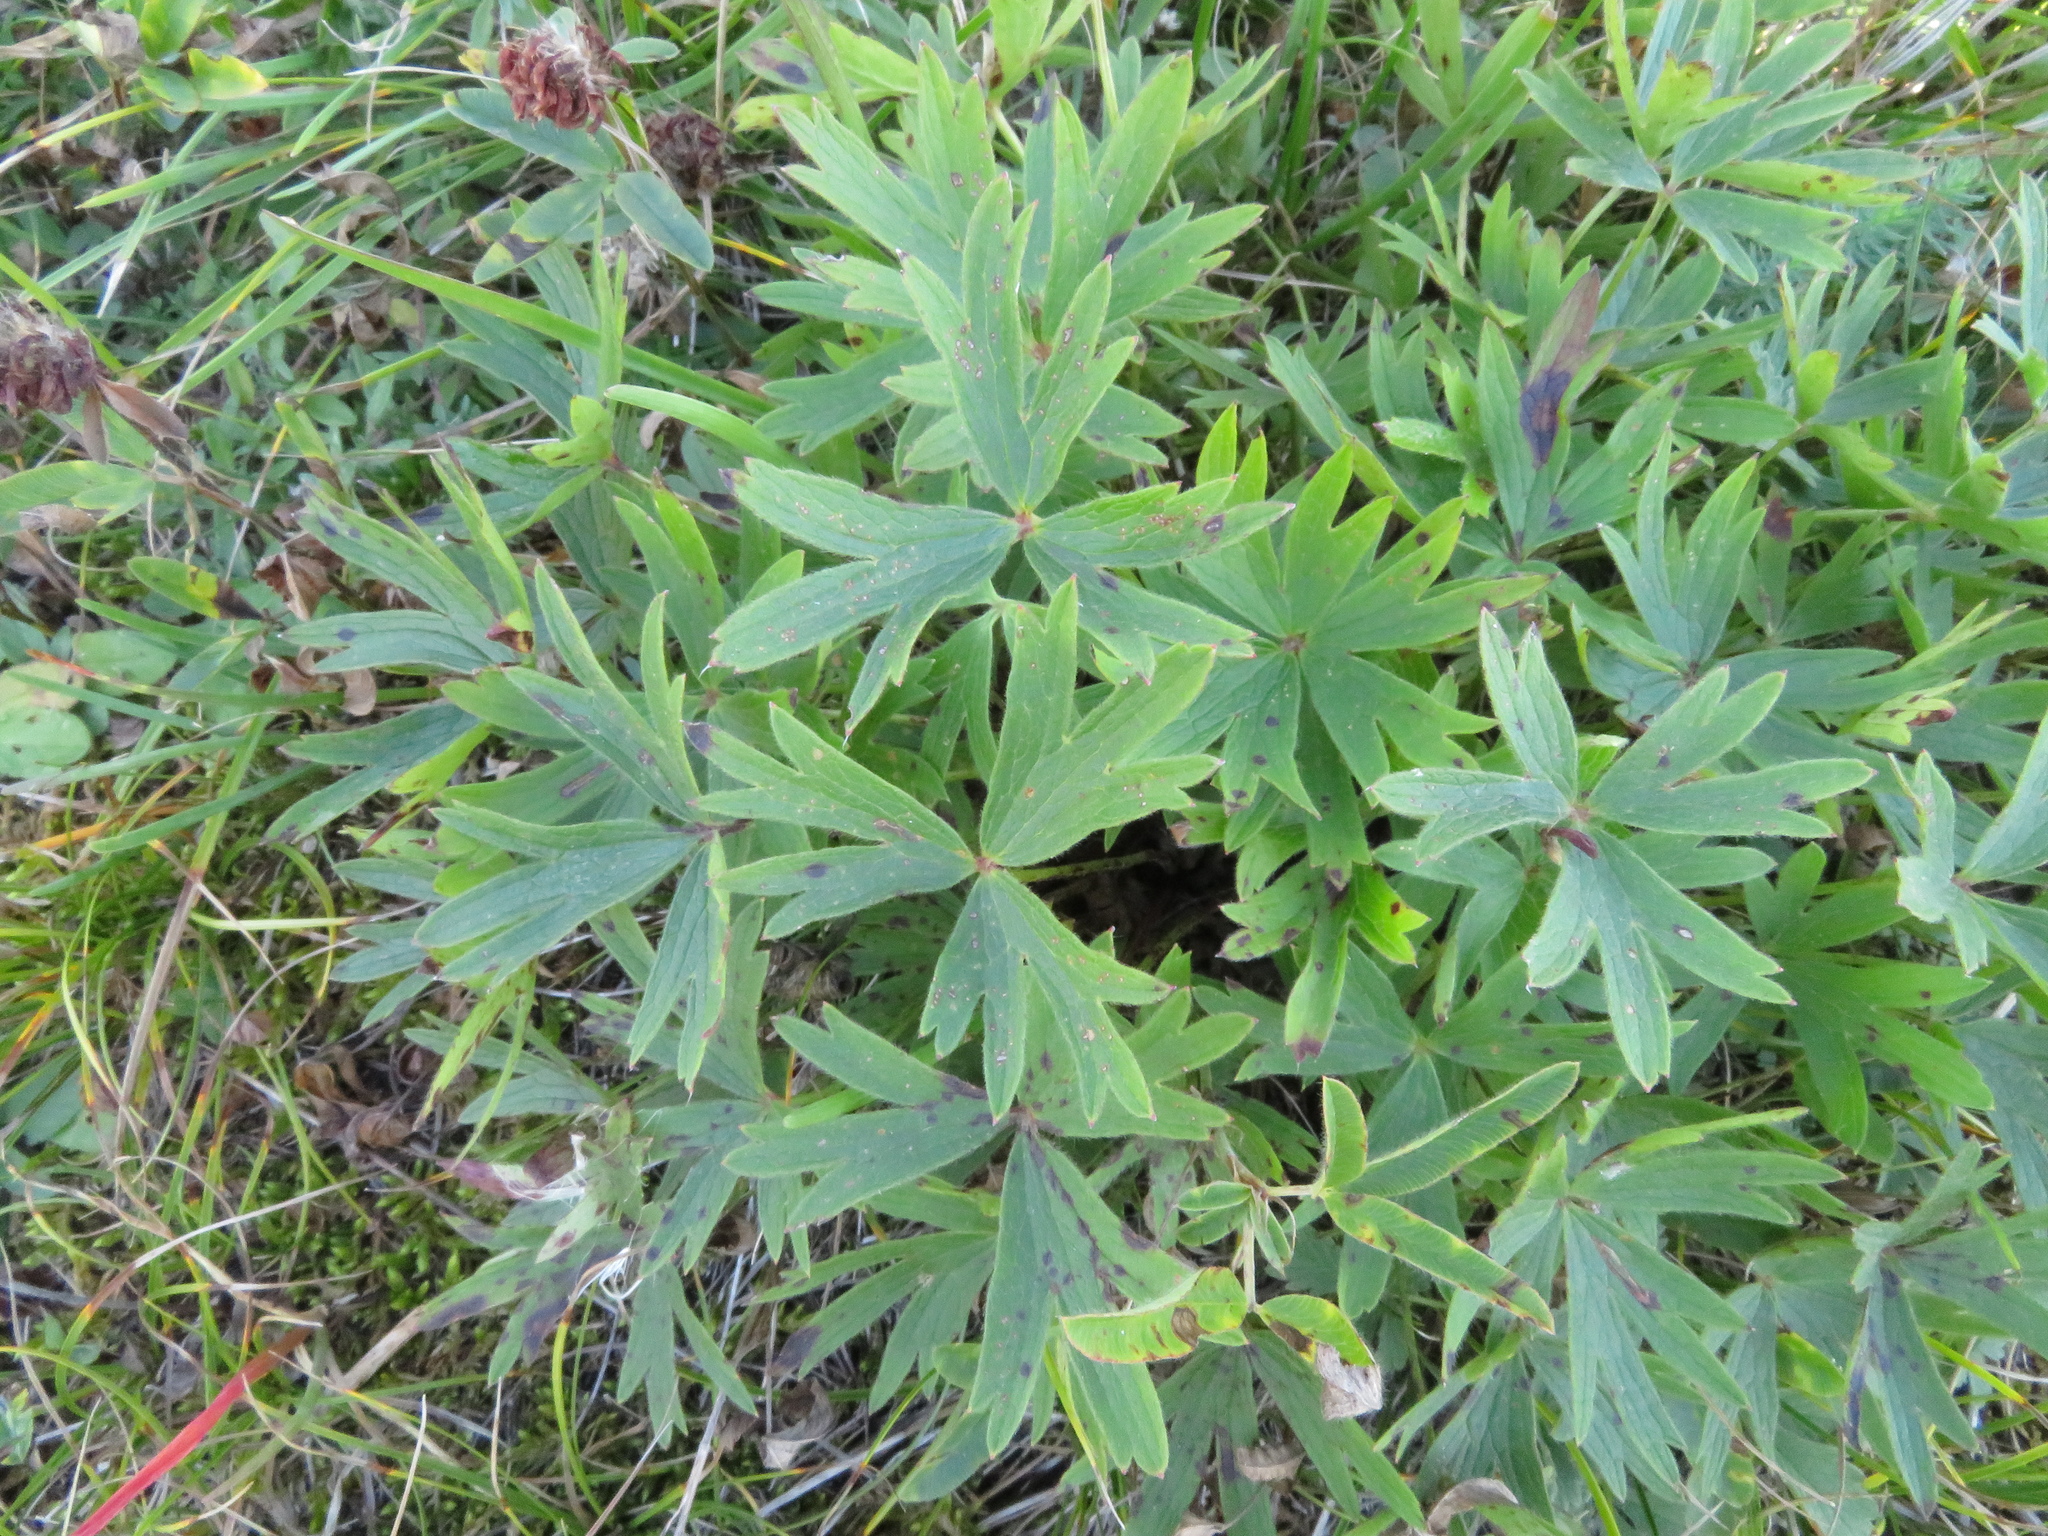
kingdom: Plantae
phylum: Tracheophyta
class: Magnoliopsida
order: Ranunculales
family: Ranunculaceae
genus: Pulsatilla
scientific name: Pulsatilla patens
